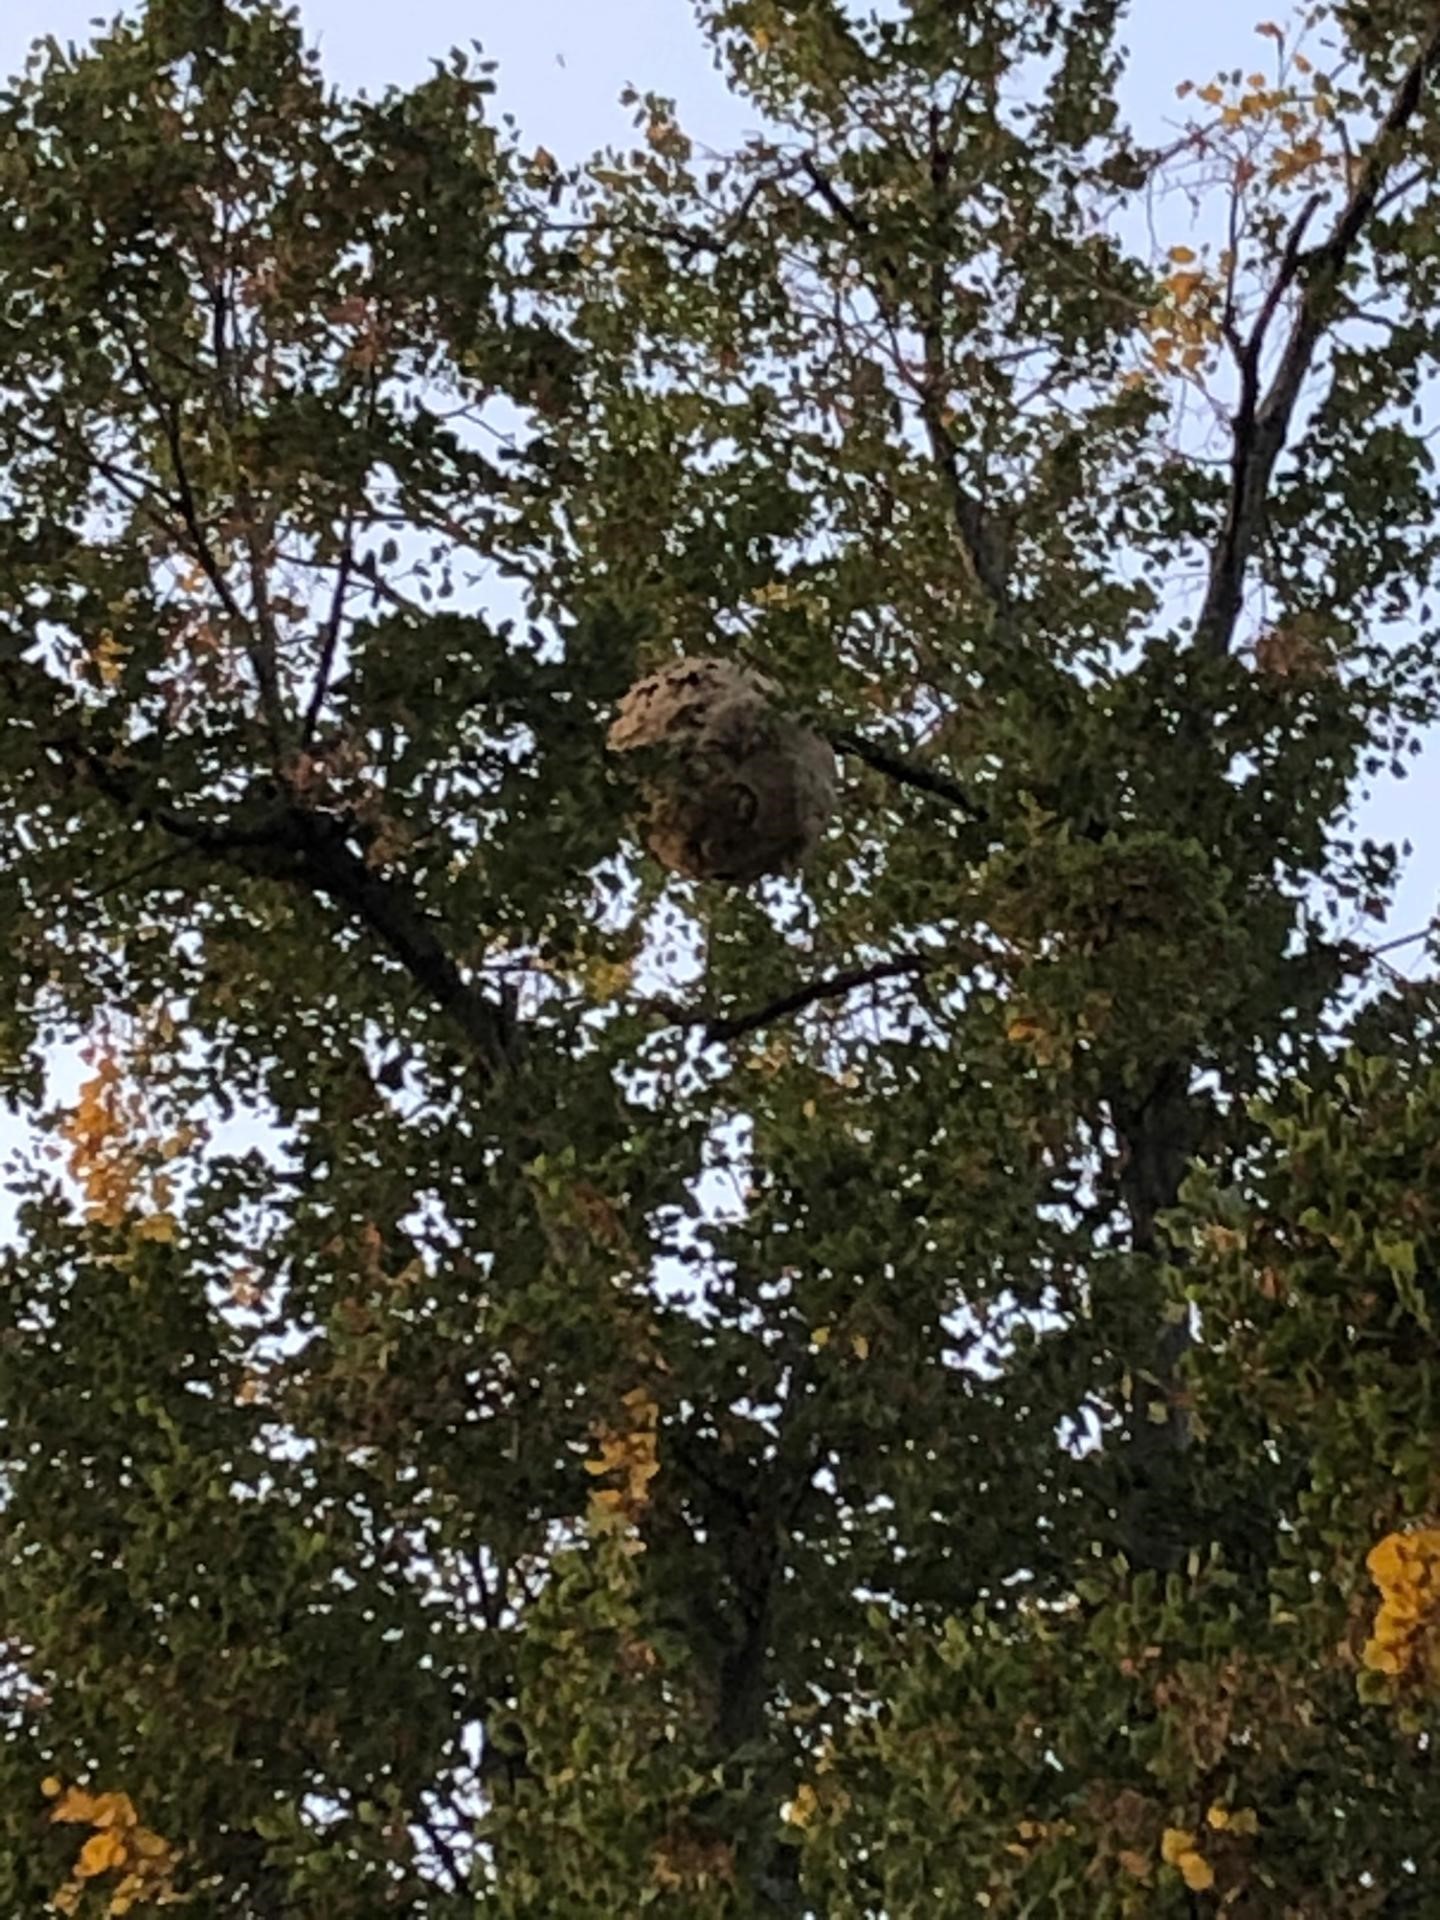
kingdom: Animalia
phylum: Arthropoda
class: Insecta
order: Hymenoptera
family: Vespidae
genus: Vespa
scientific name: Vespa velutina
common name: Asian hornet
